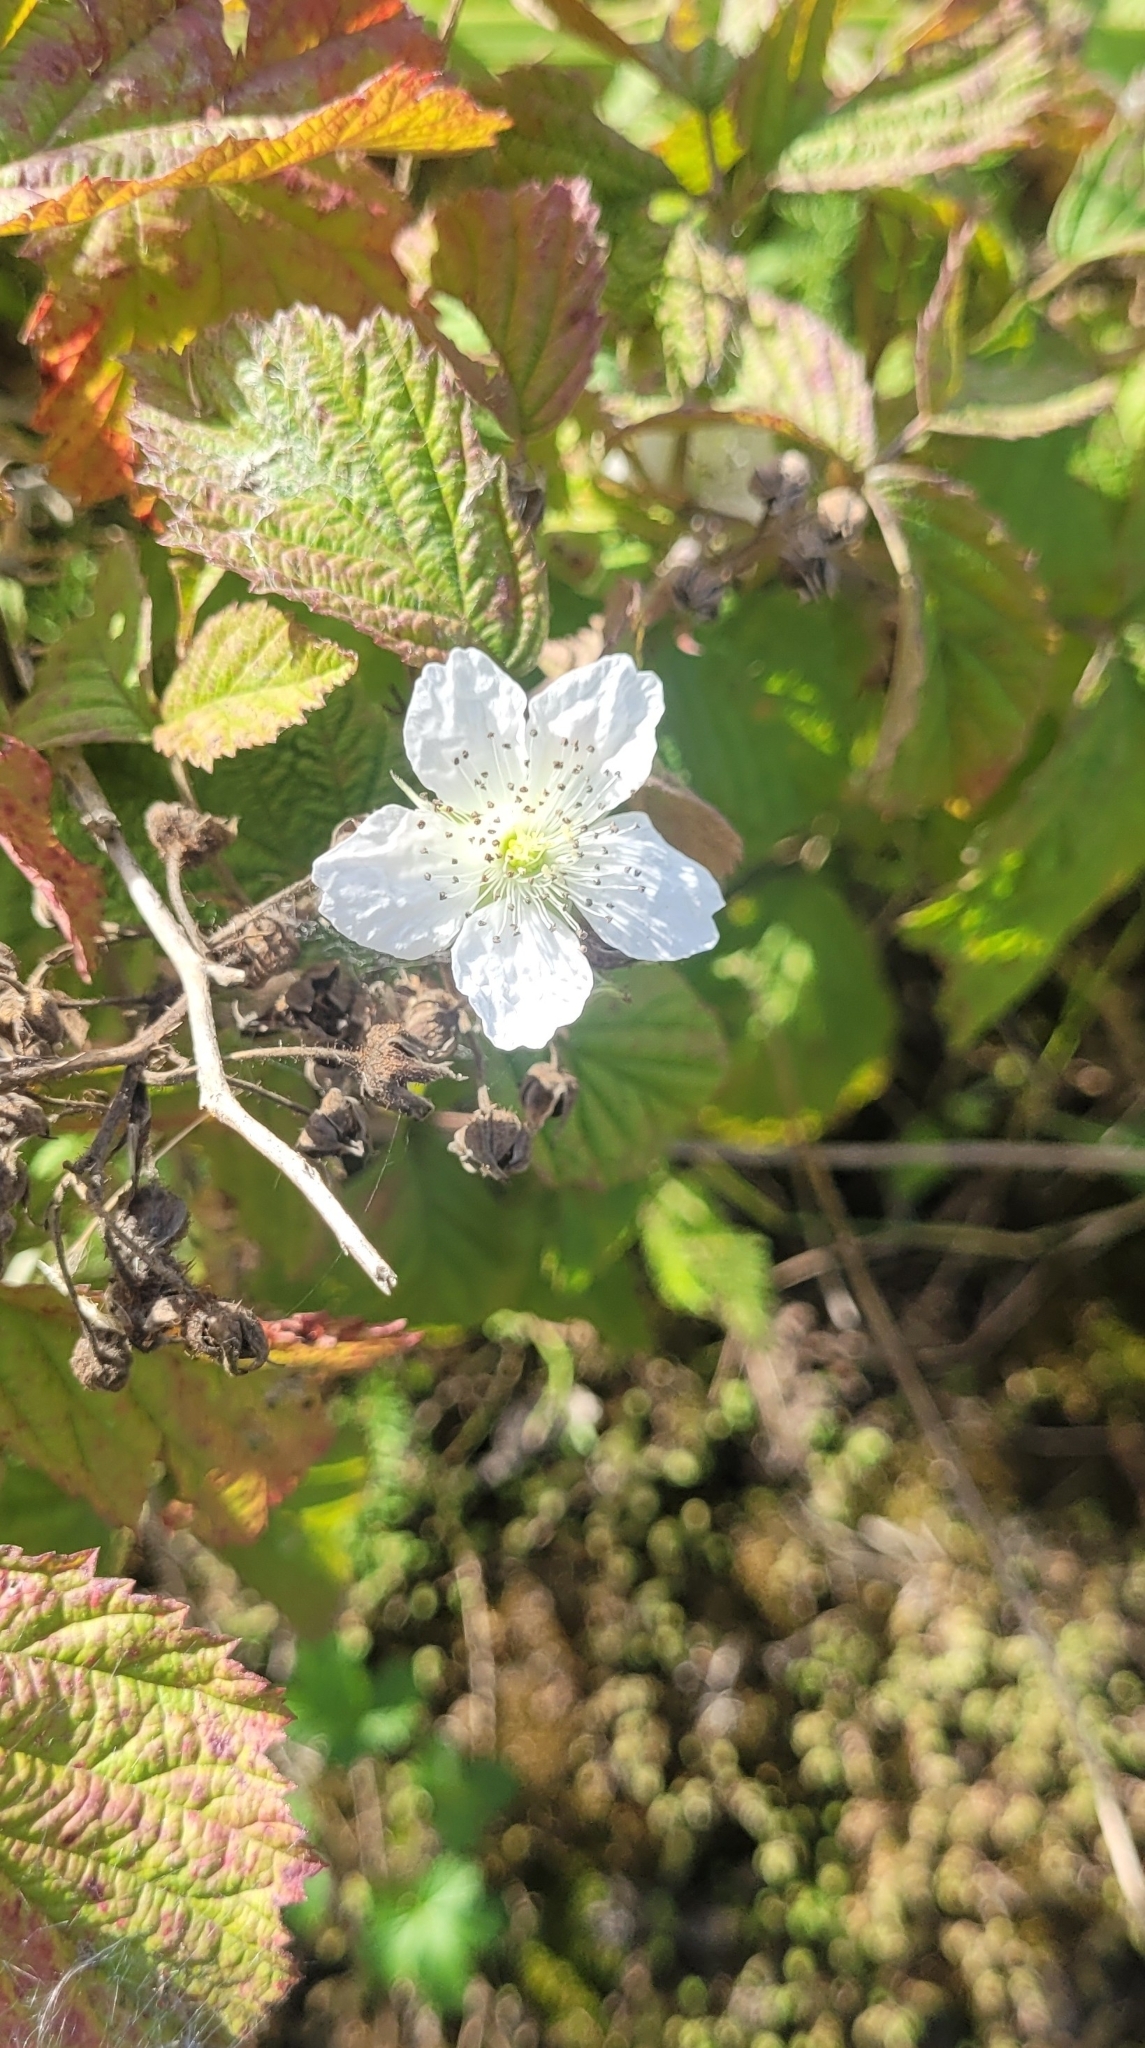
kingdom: Plantae
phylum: Tracheophyta
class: Magnoliopsida
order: Rosales
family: Rosaceae
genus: Rubus
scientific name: Rubus caesius
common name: Dewberry
